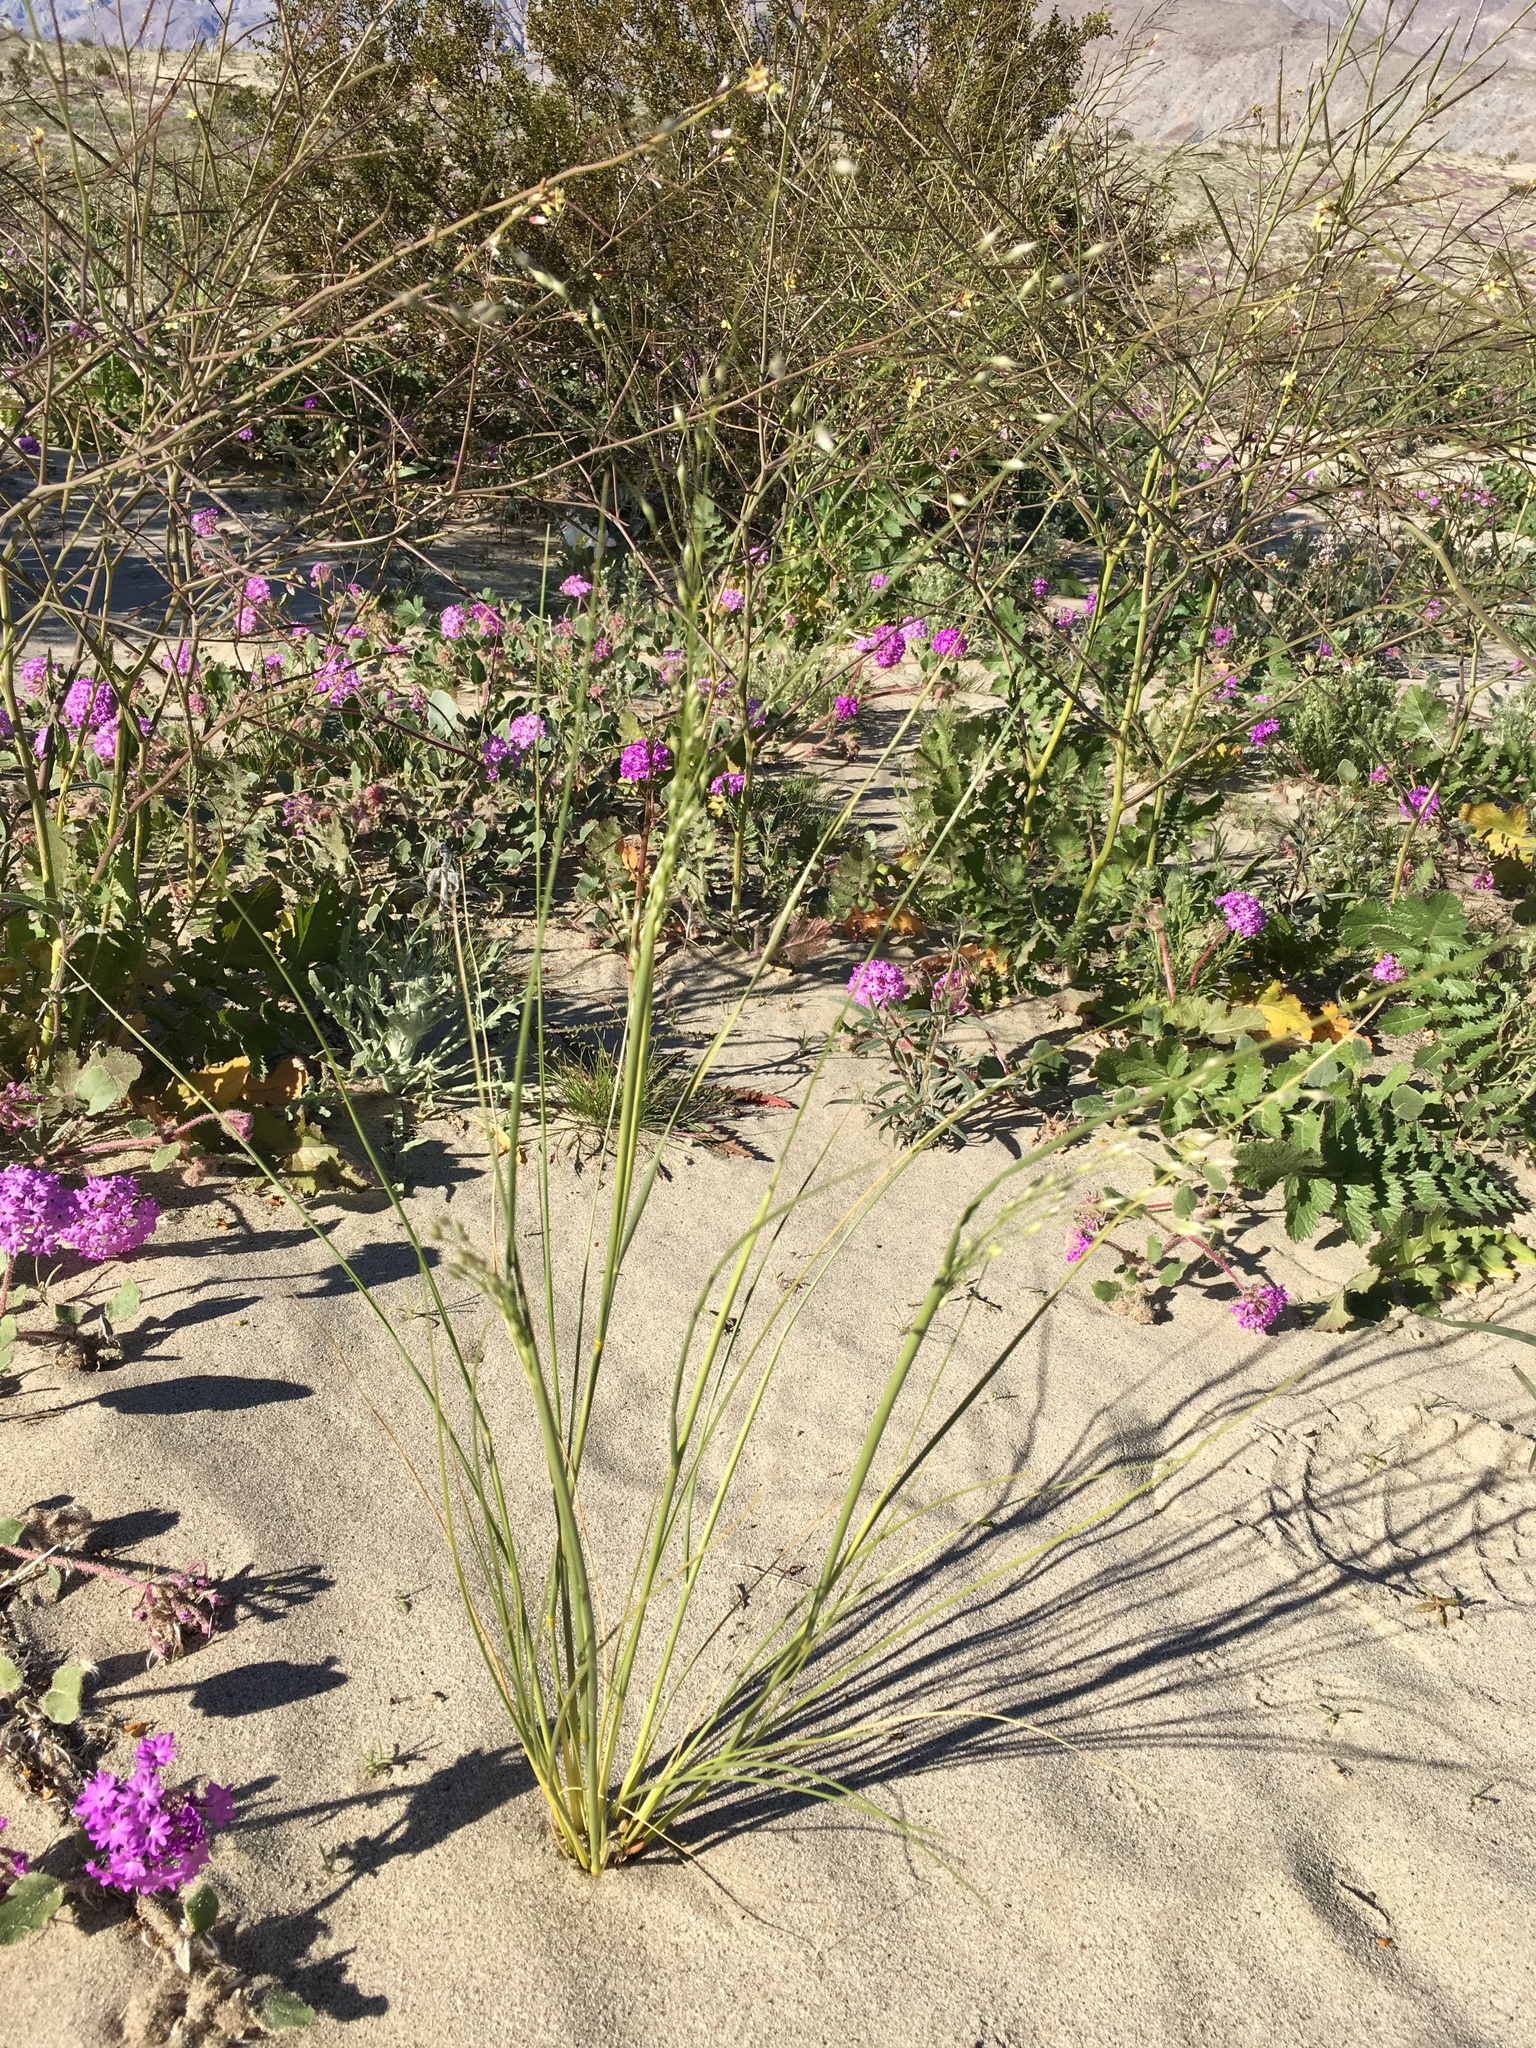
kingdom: Plantae
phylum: Tracheophyta
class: Liliopsida
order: Poales
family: Poaceae
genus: Eriocoma
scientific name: Eriocoma hymenoides
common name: Indian mountain ricegrass
